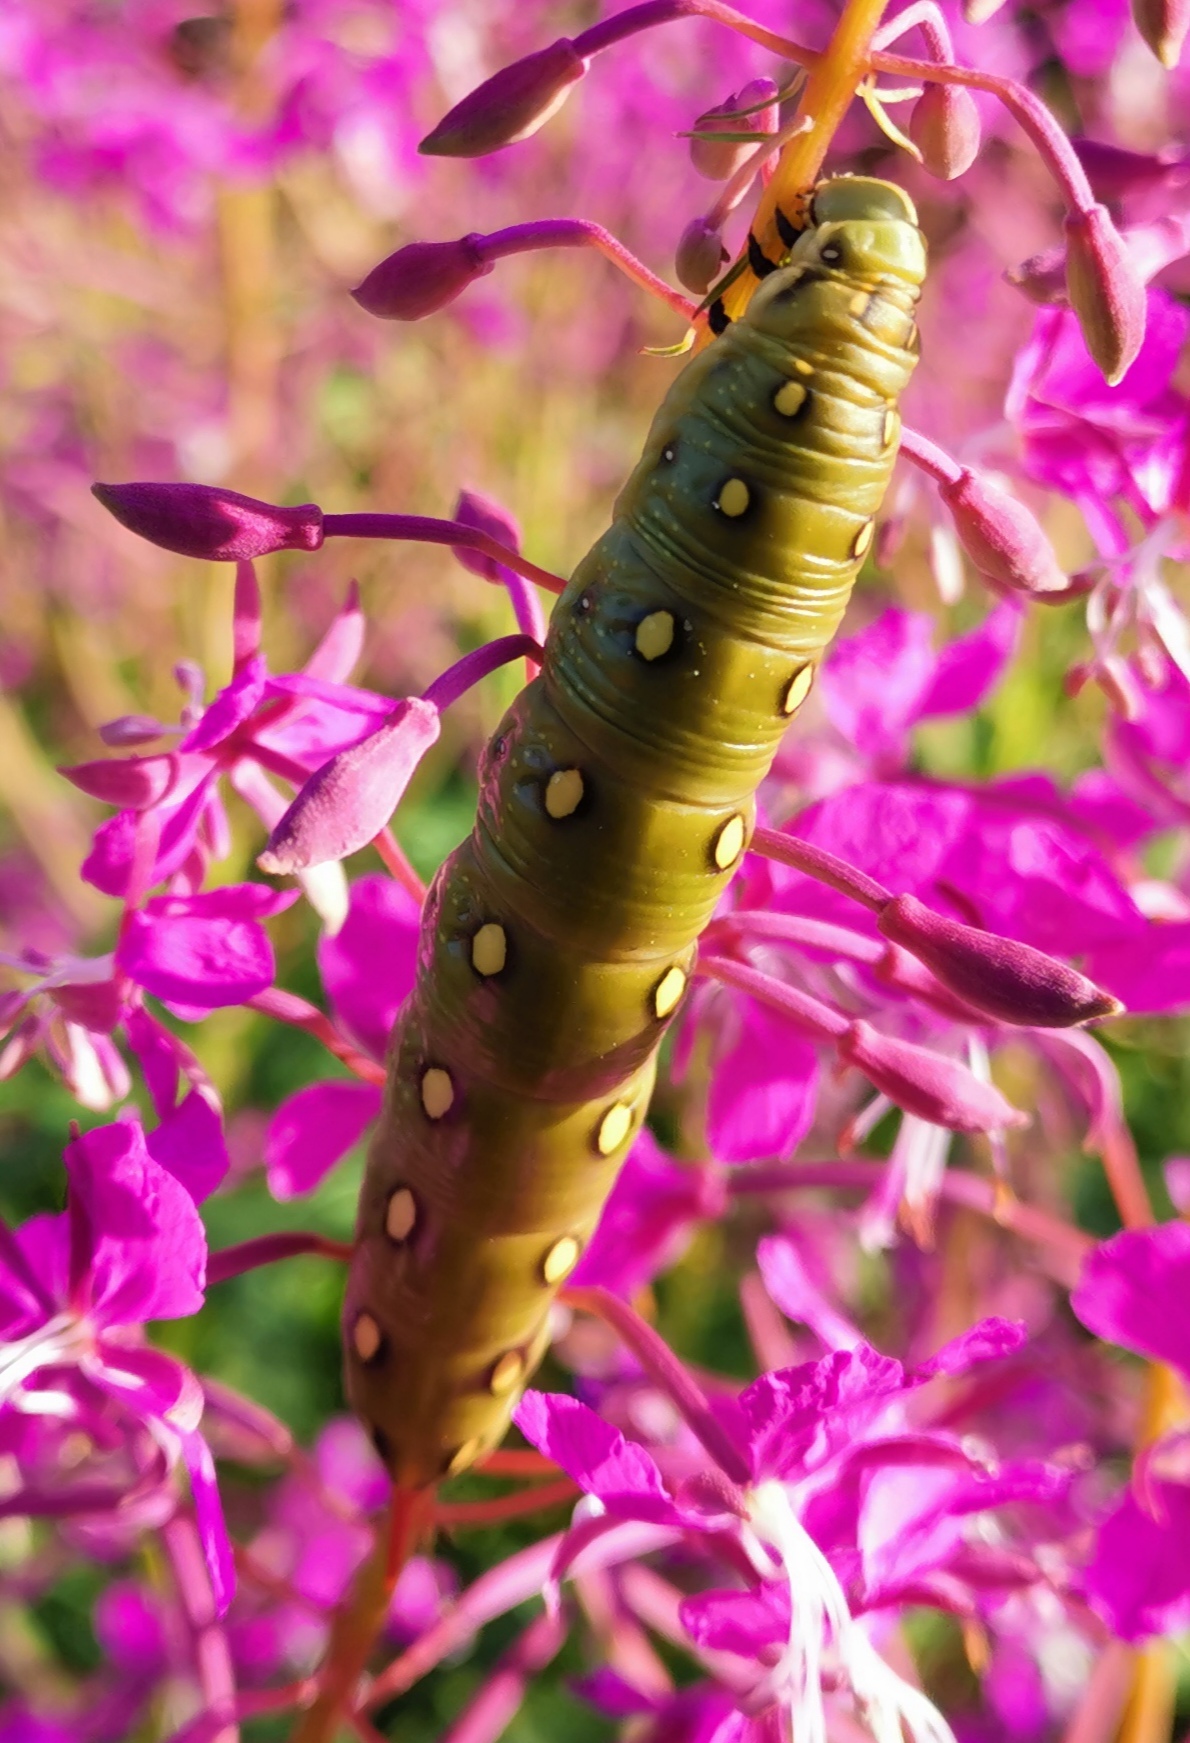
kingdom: Animalia
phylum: Arthropoda
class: Insecta
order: Lepidoptera
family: Sphingidae
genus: Hyles
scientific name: Hyles gallii
